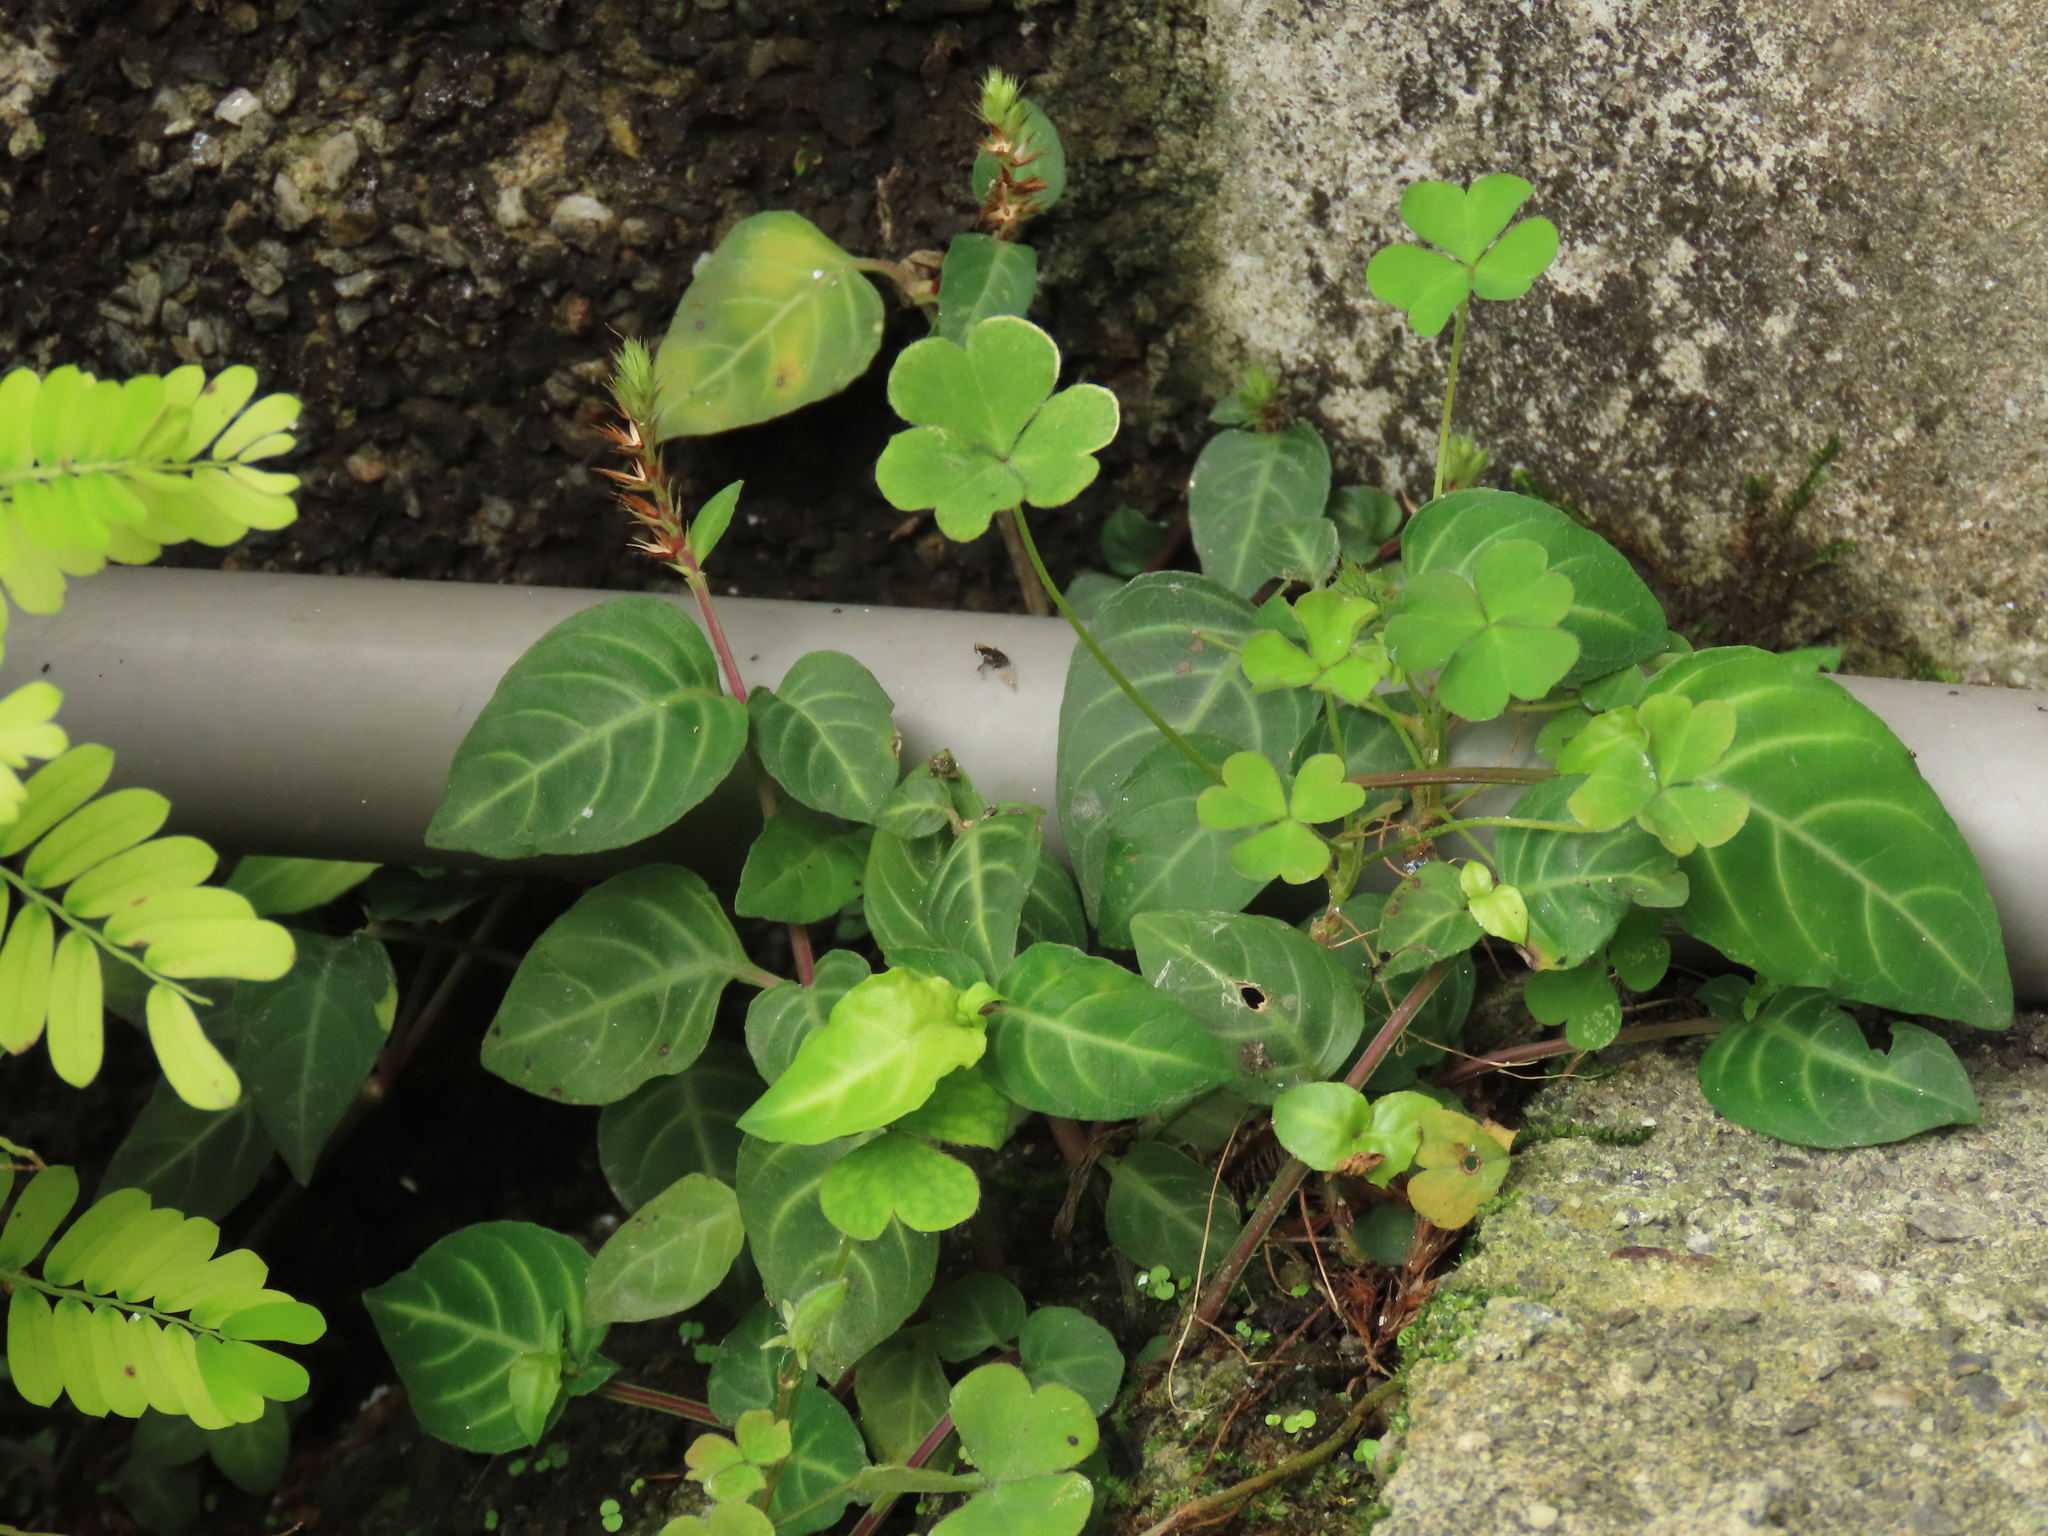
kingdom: Plantae
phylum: Tracheophyta
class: Magnoliopsida
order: Lamiales
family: Acanthaceae
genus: Lepidagathis
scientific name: Lepidagathis inaequalis
